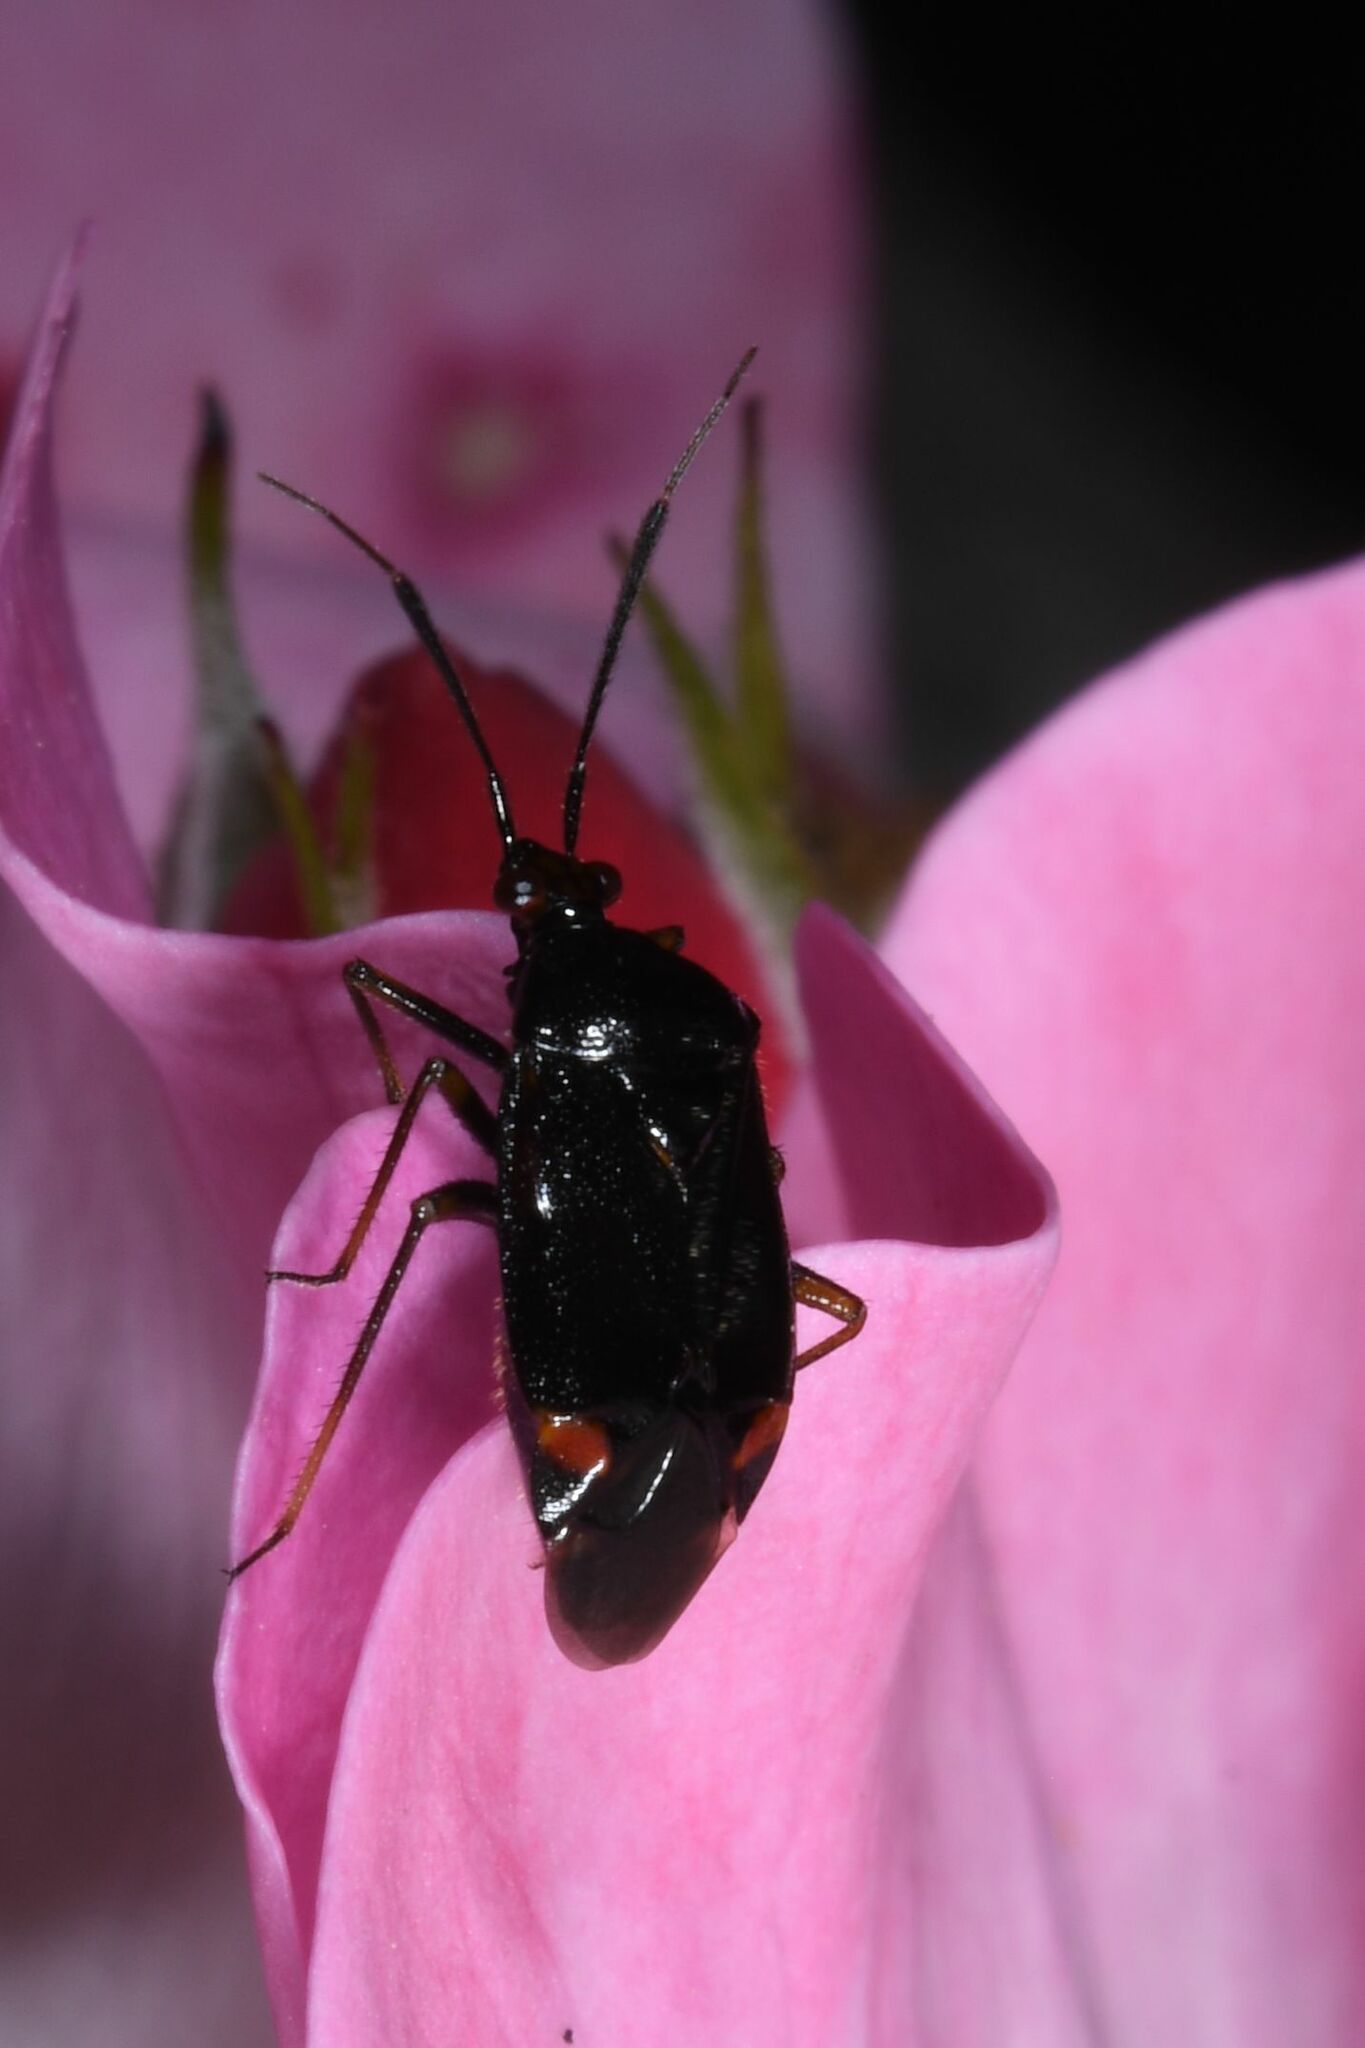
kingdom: Animalia
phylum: Arthropoda
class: Insecta
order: Hemiptera
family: Miridae
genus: Deraeocoris
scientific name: Deraeocoris ruber
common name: Plant bug
